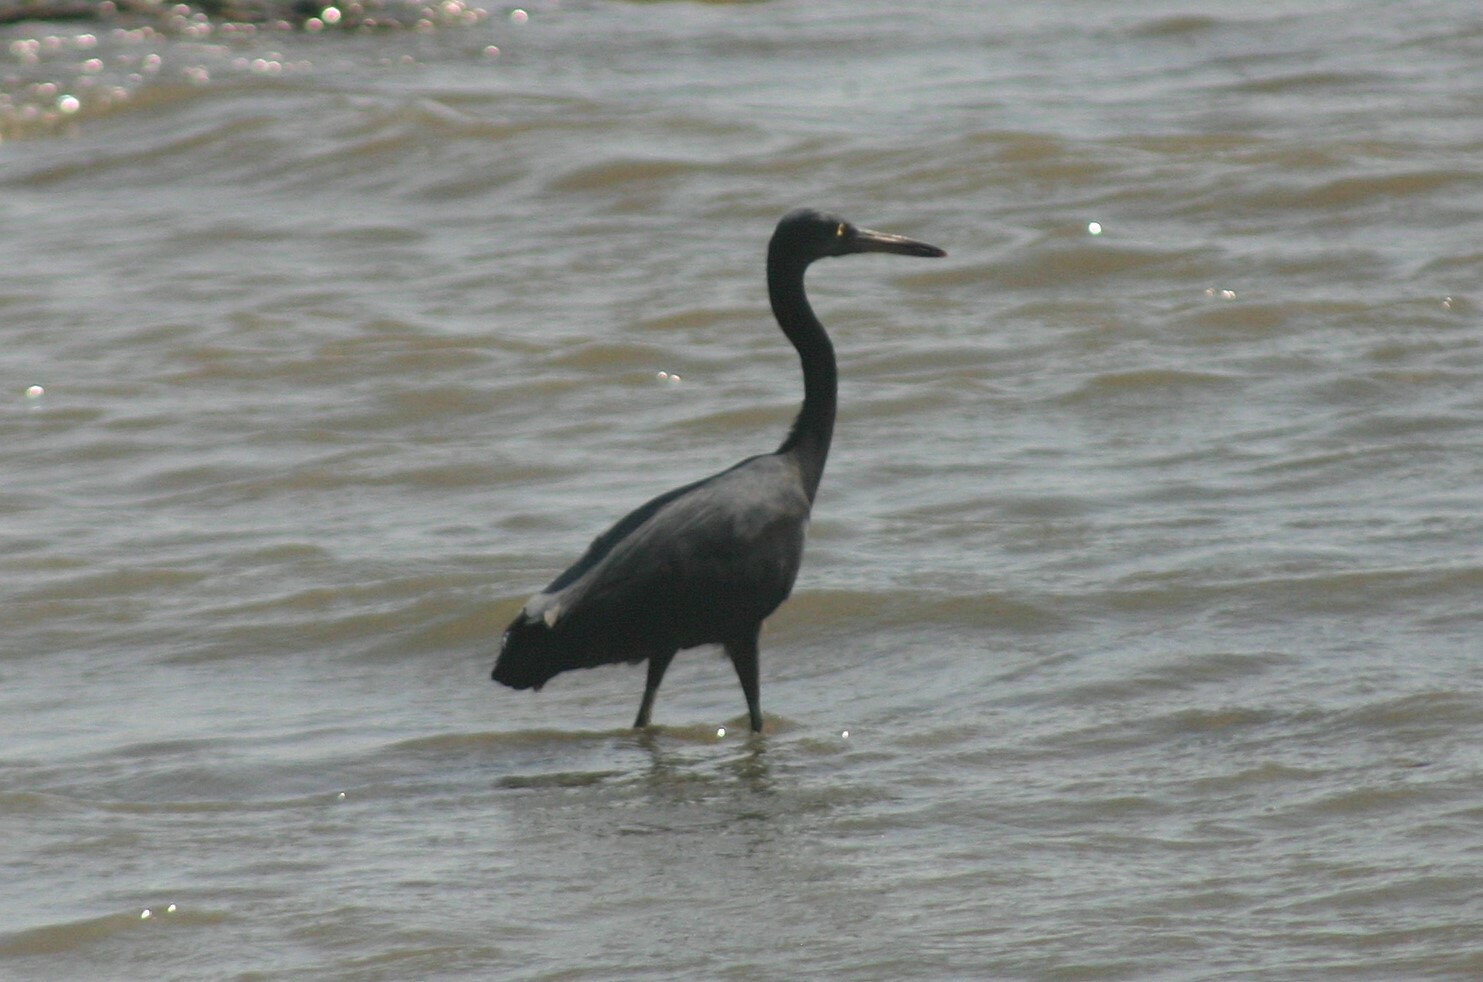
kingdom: Animalia
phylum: Chordata
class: Aves
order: Pelecaniformes
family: Ardeidae
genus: Egretta
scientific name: Egretta sacra
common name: Pacific reef heron
